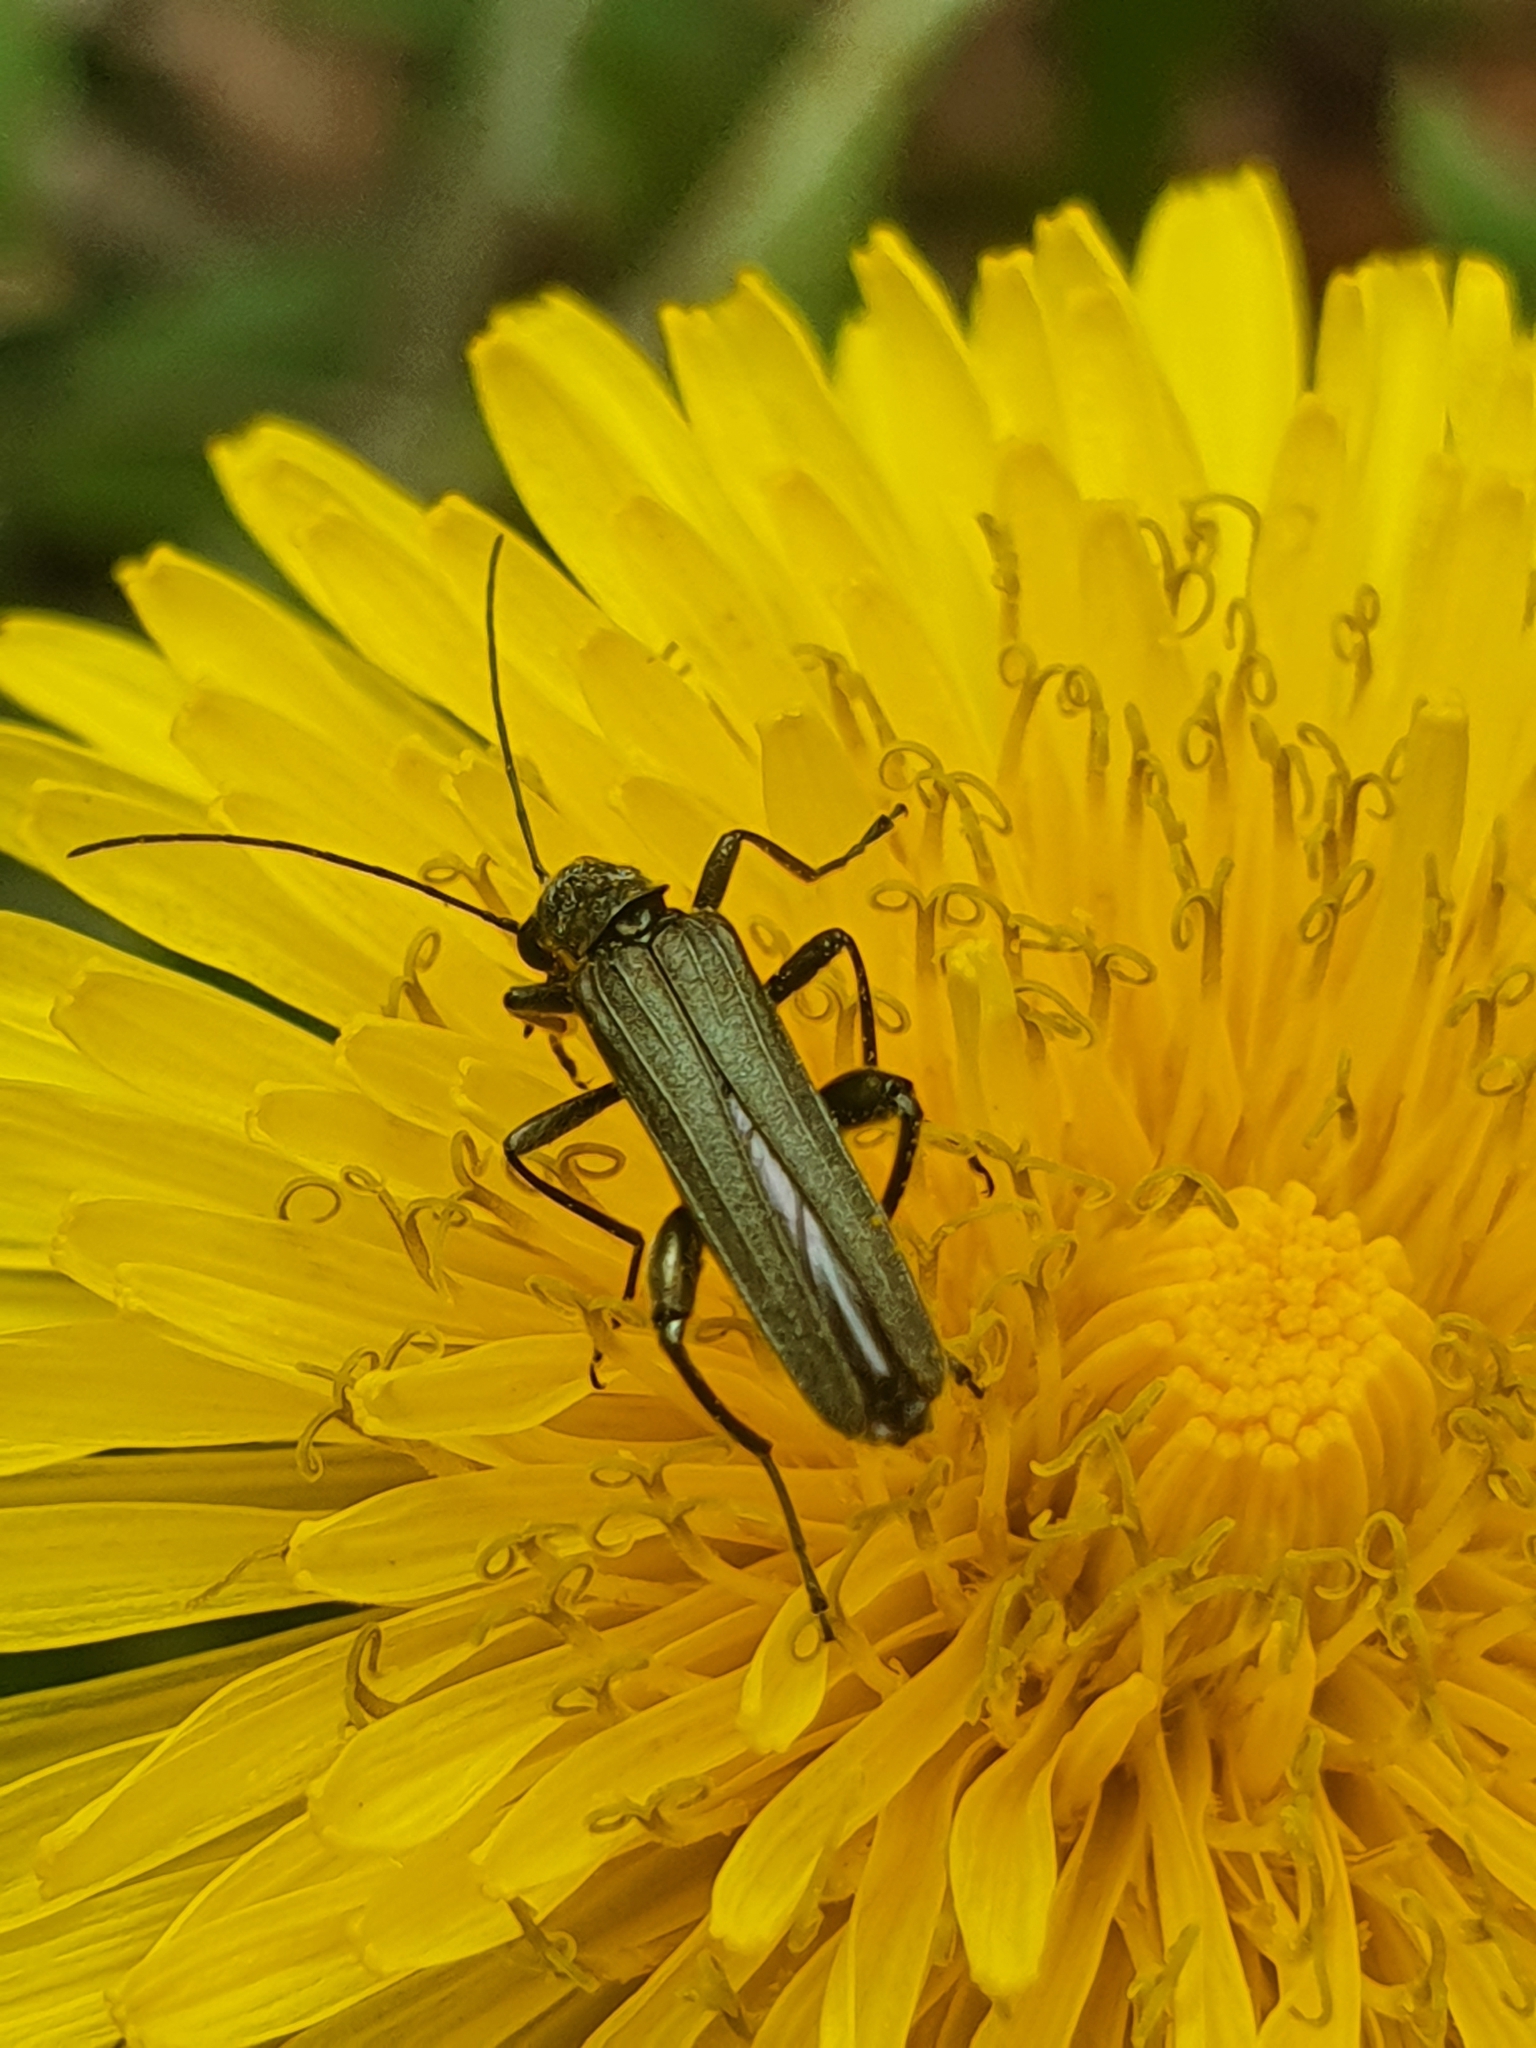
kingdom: Animalia
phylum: Arthropoda
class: Insecta
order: Coleoptera
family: Oedemeridae
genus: Oedemera
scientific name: Oedemera lurida
